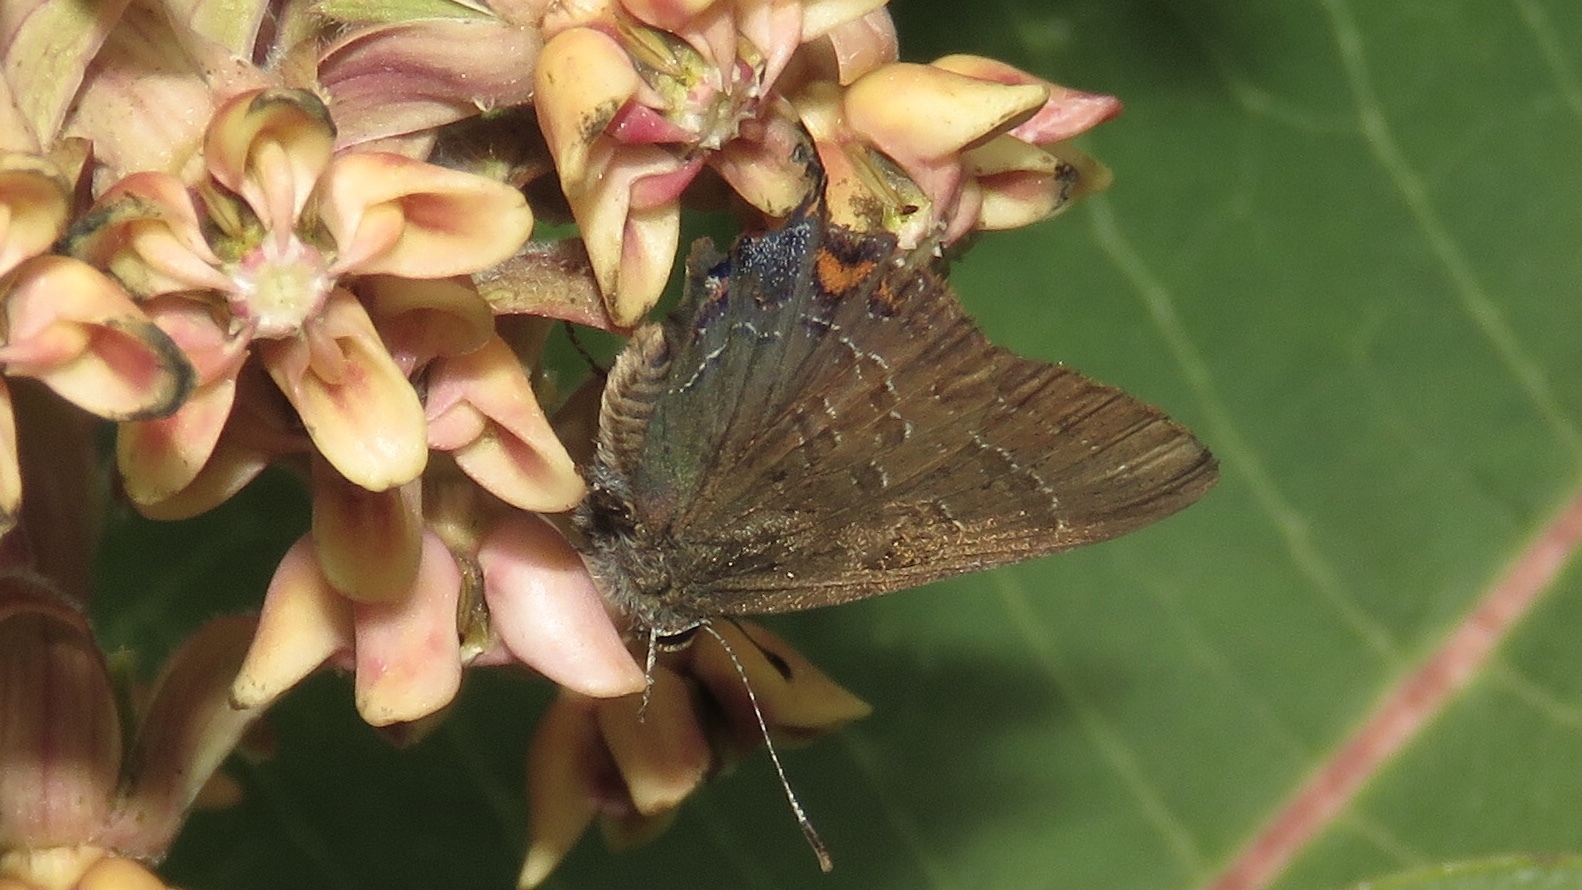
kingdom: Animalia
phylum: Arthropoda
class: Insecta
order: Lepidoptera
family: Lycaenidae
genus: Satyrium
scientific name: Satyrium calanus
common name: Banded hairstreak
